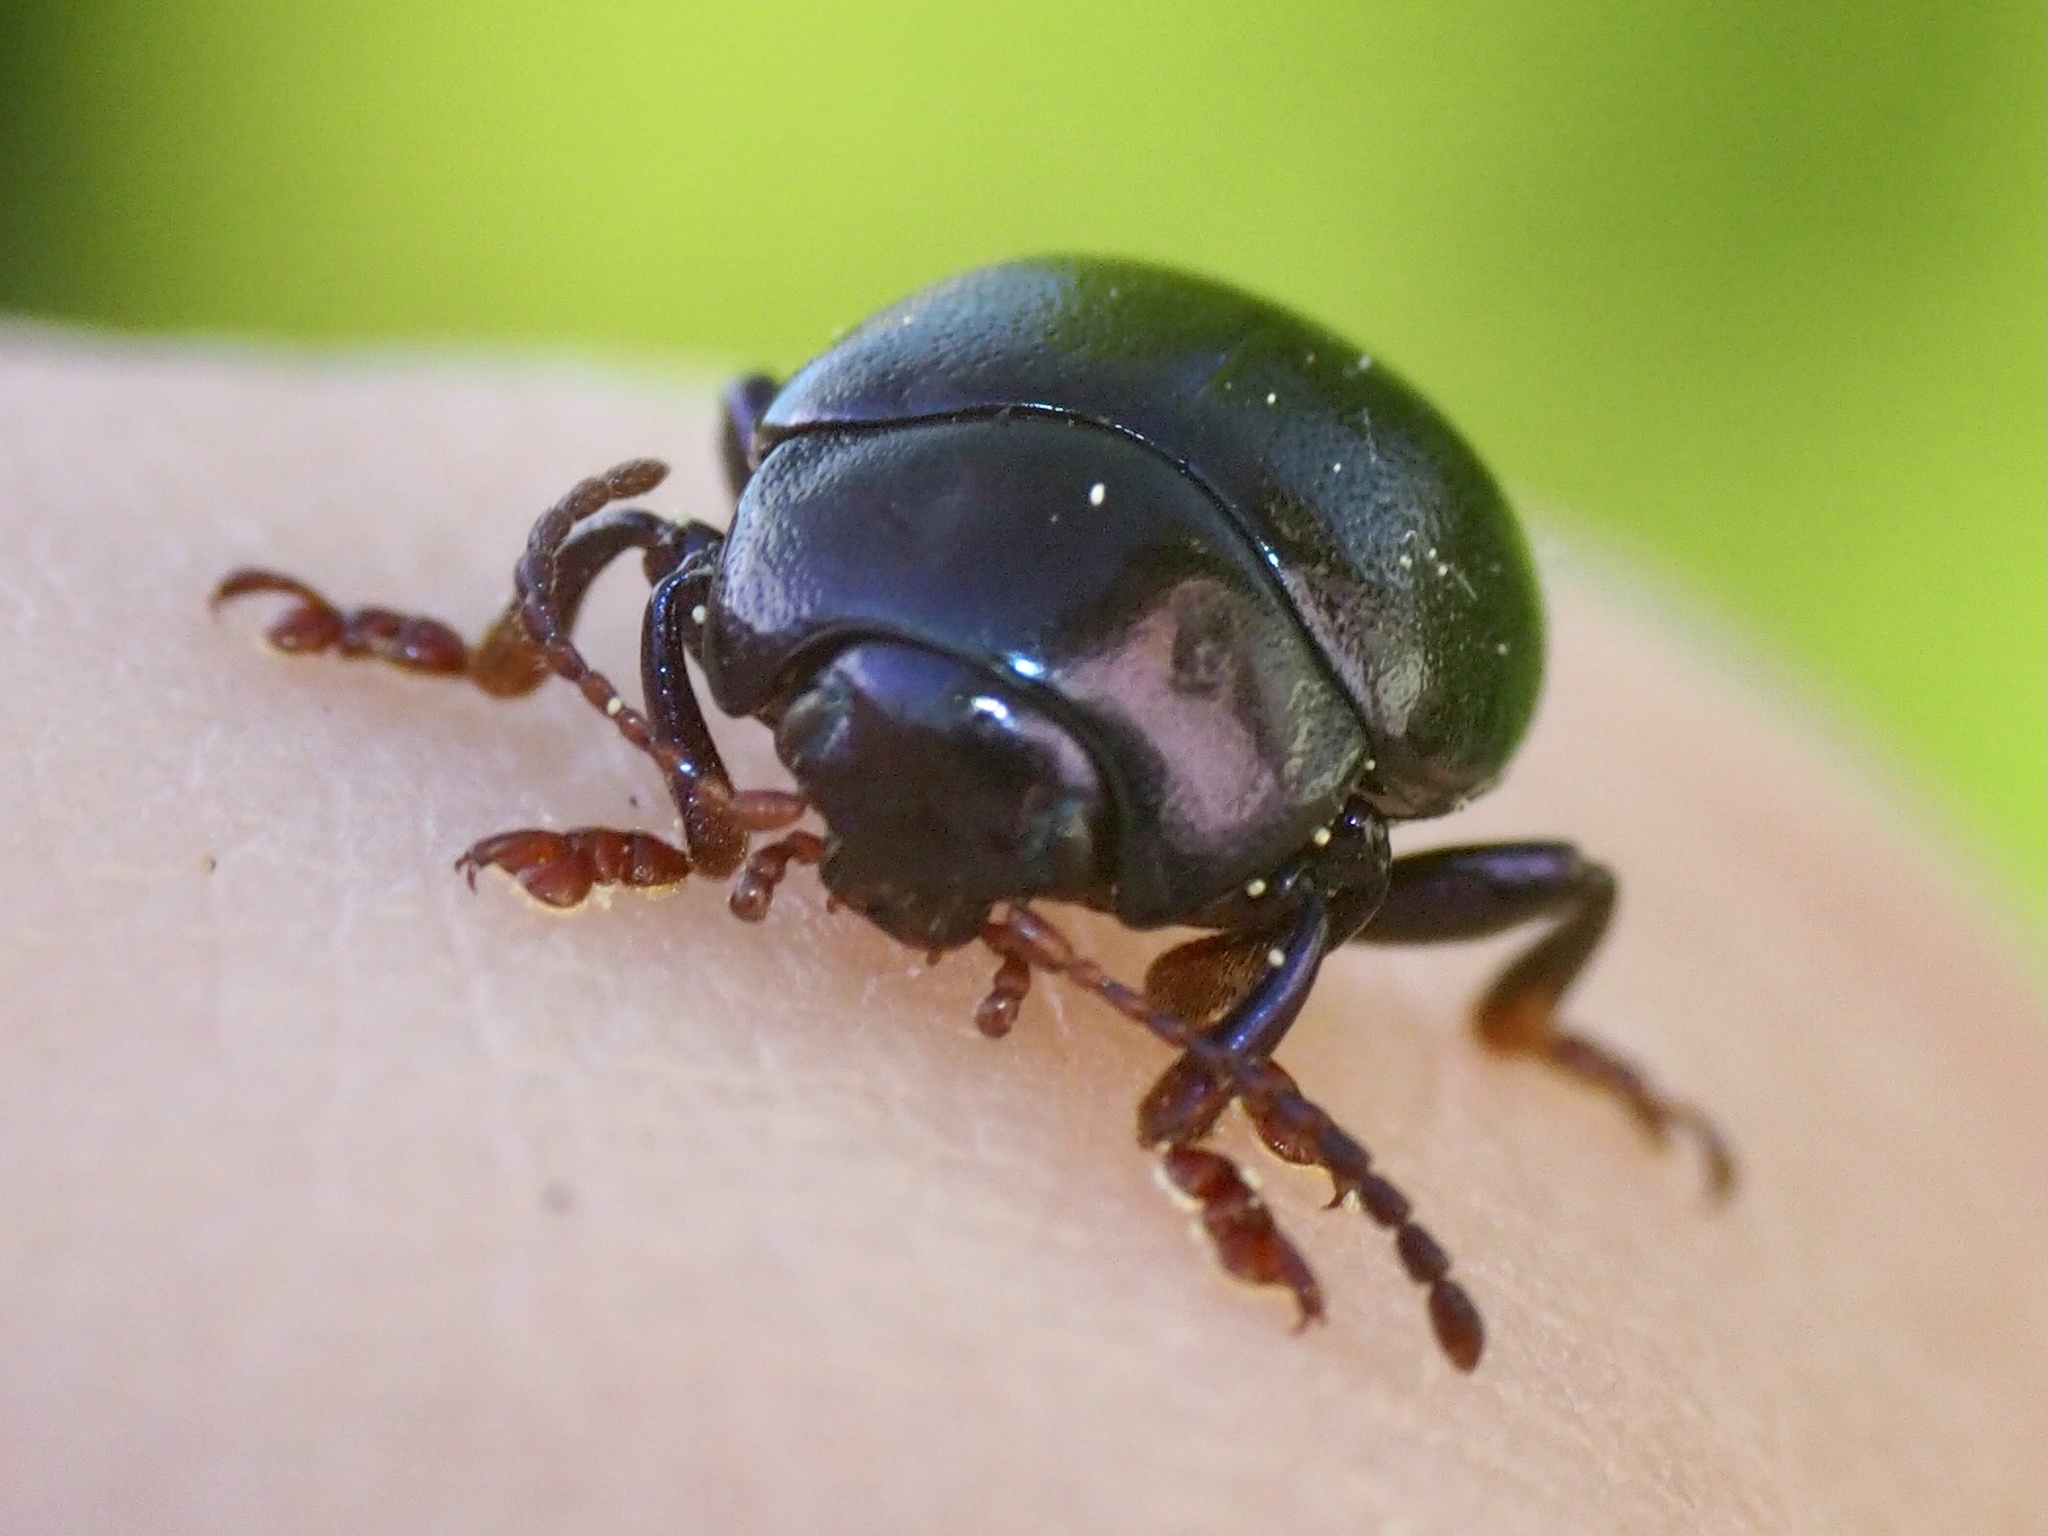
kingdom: Animalia
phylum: Arthropoda
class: Insecta
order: Coleoptera
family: Chrysomelidae
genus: Chrysolina
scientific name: Chrysolina sturmi
